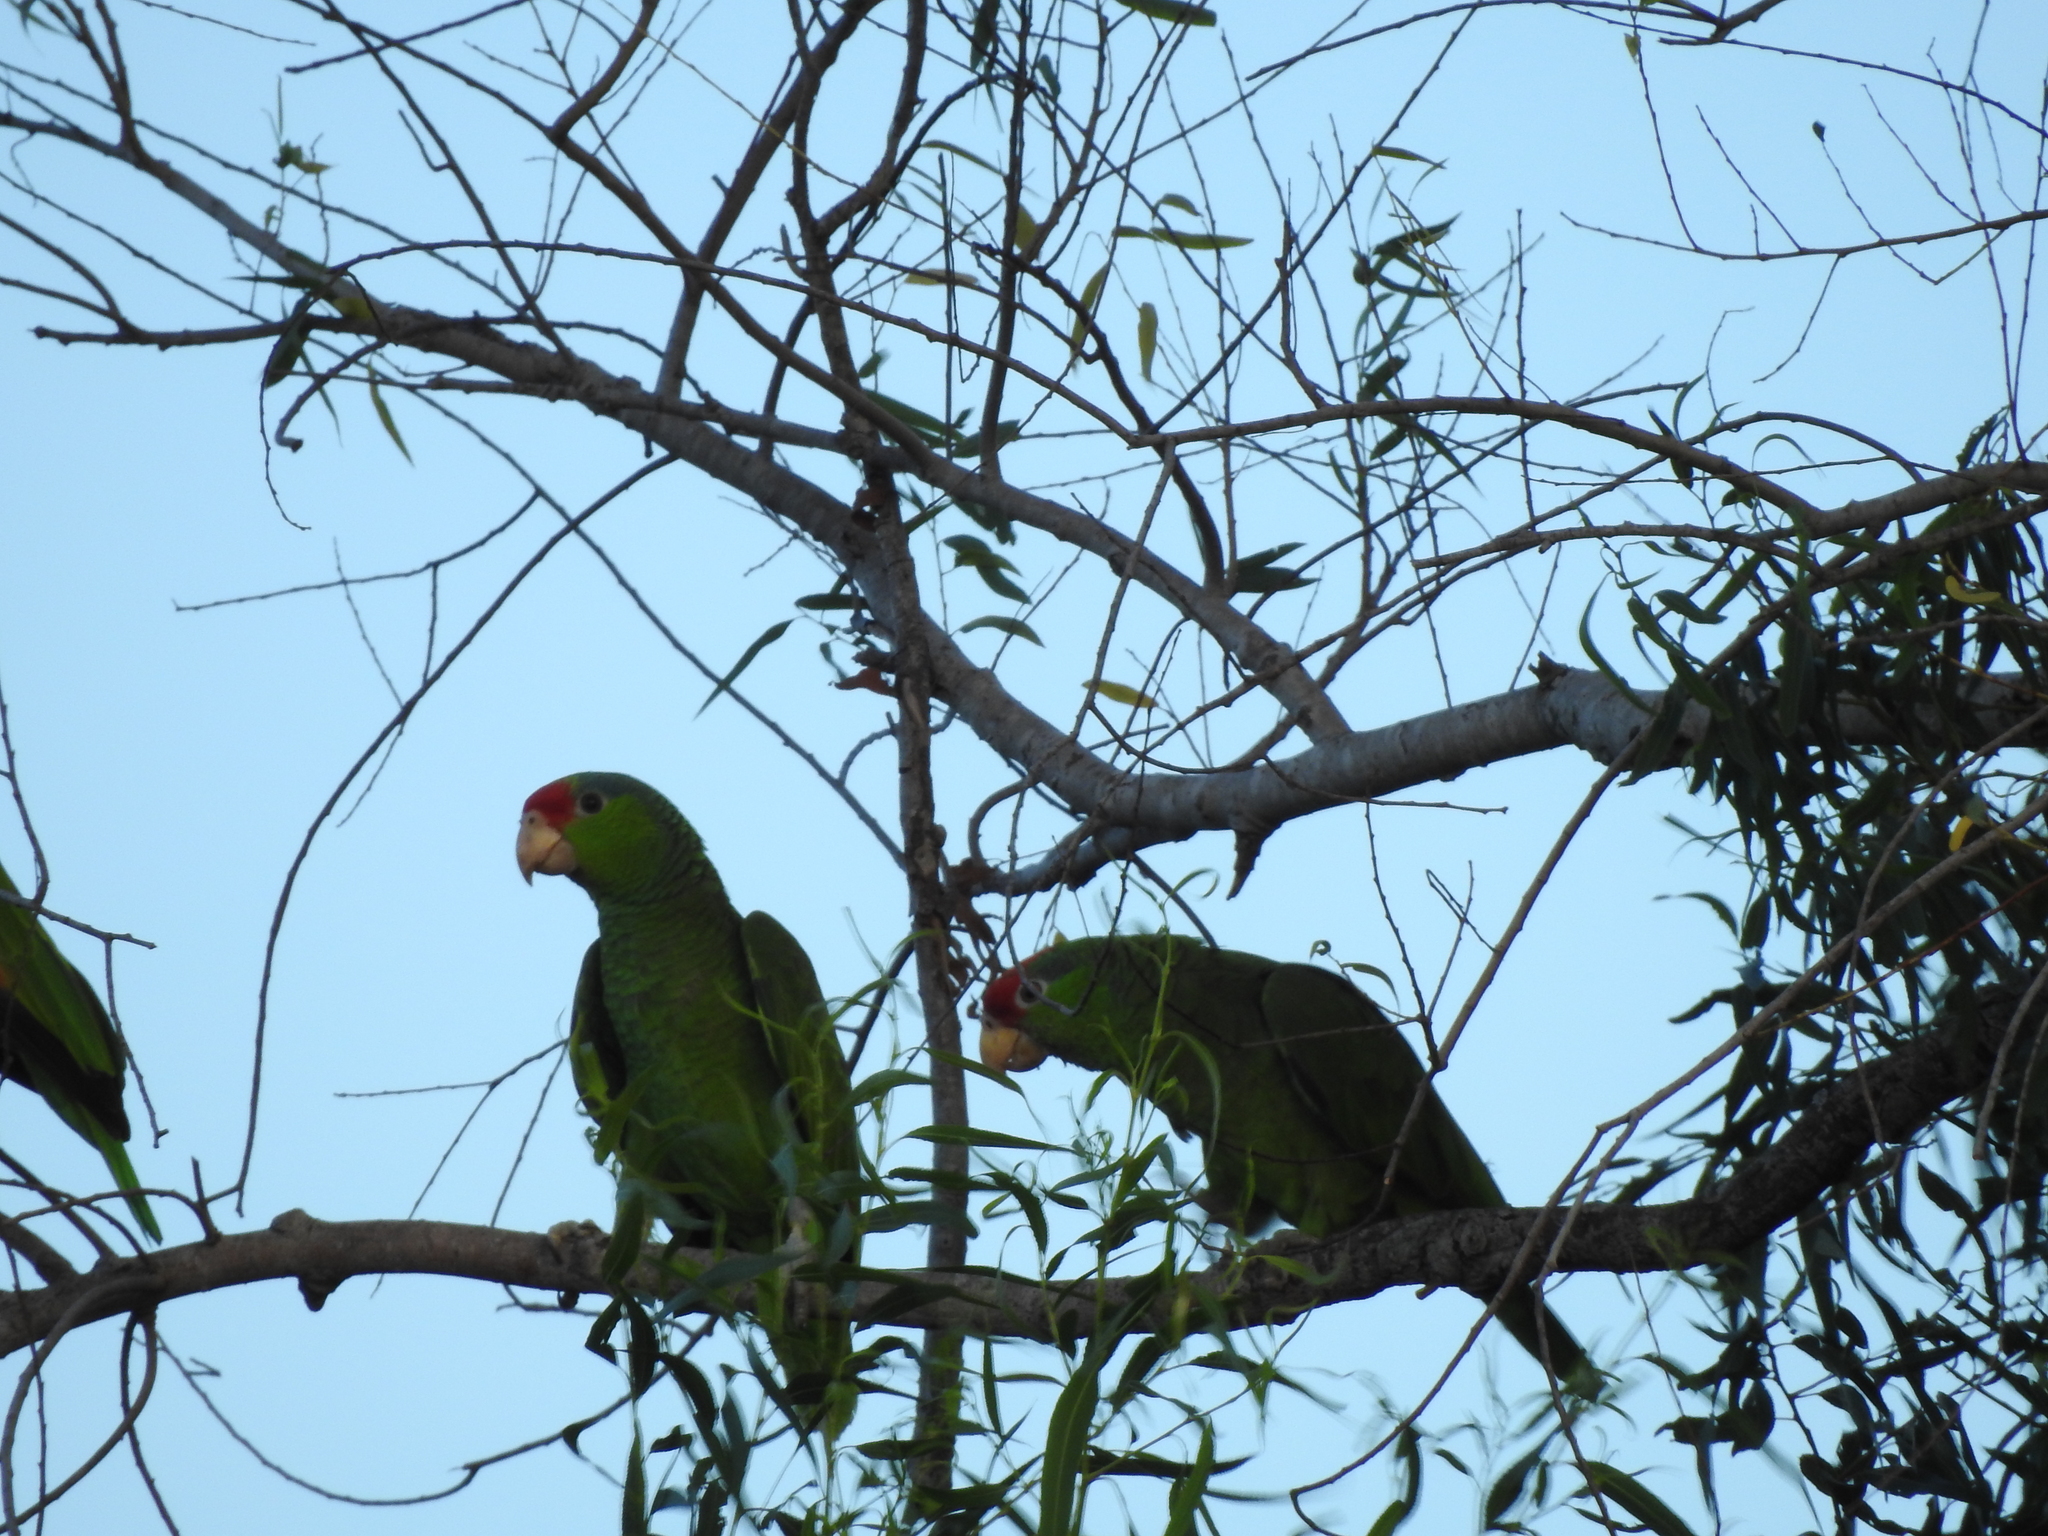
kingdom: Animalia
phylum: Chordata
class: Aves
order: Psittaciformes
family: Psittacidae
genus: Amazona
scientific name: Amazona viridigenalis
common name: Red-crowned amazon
